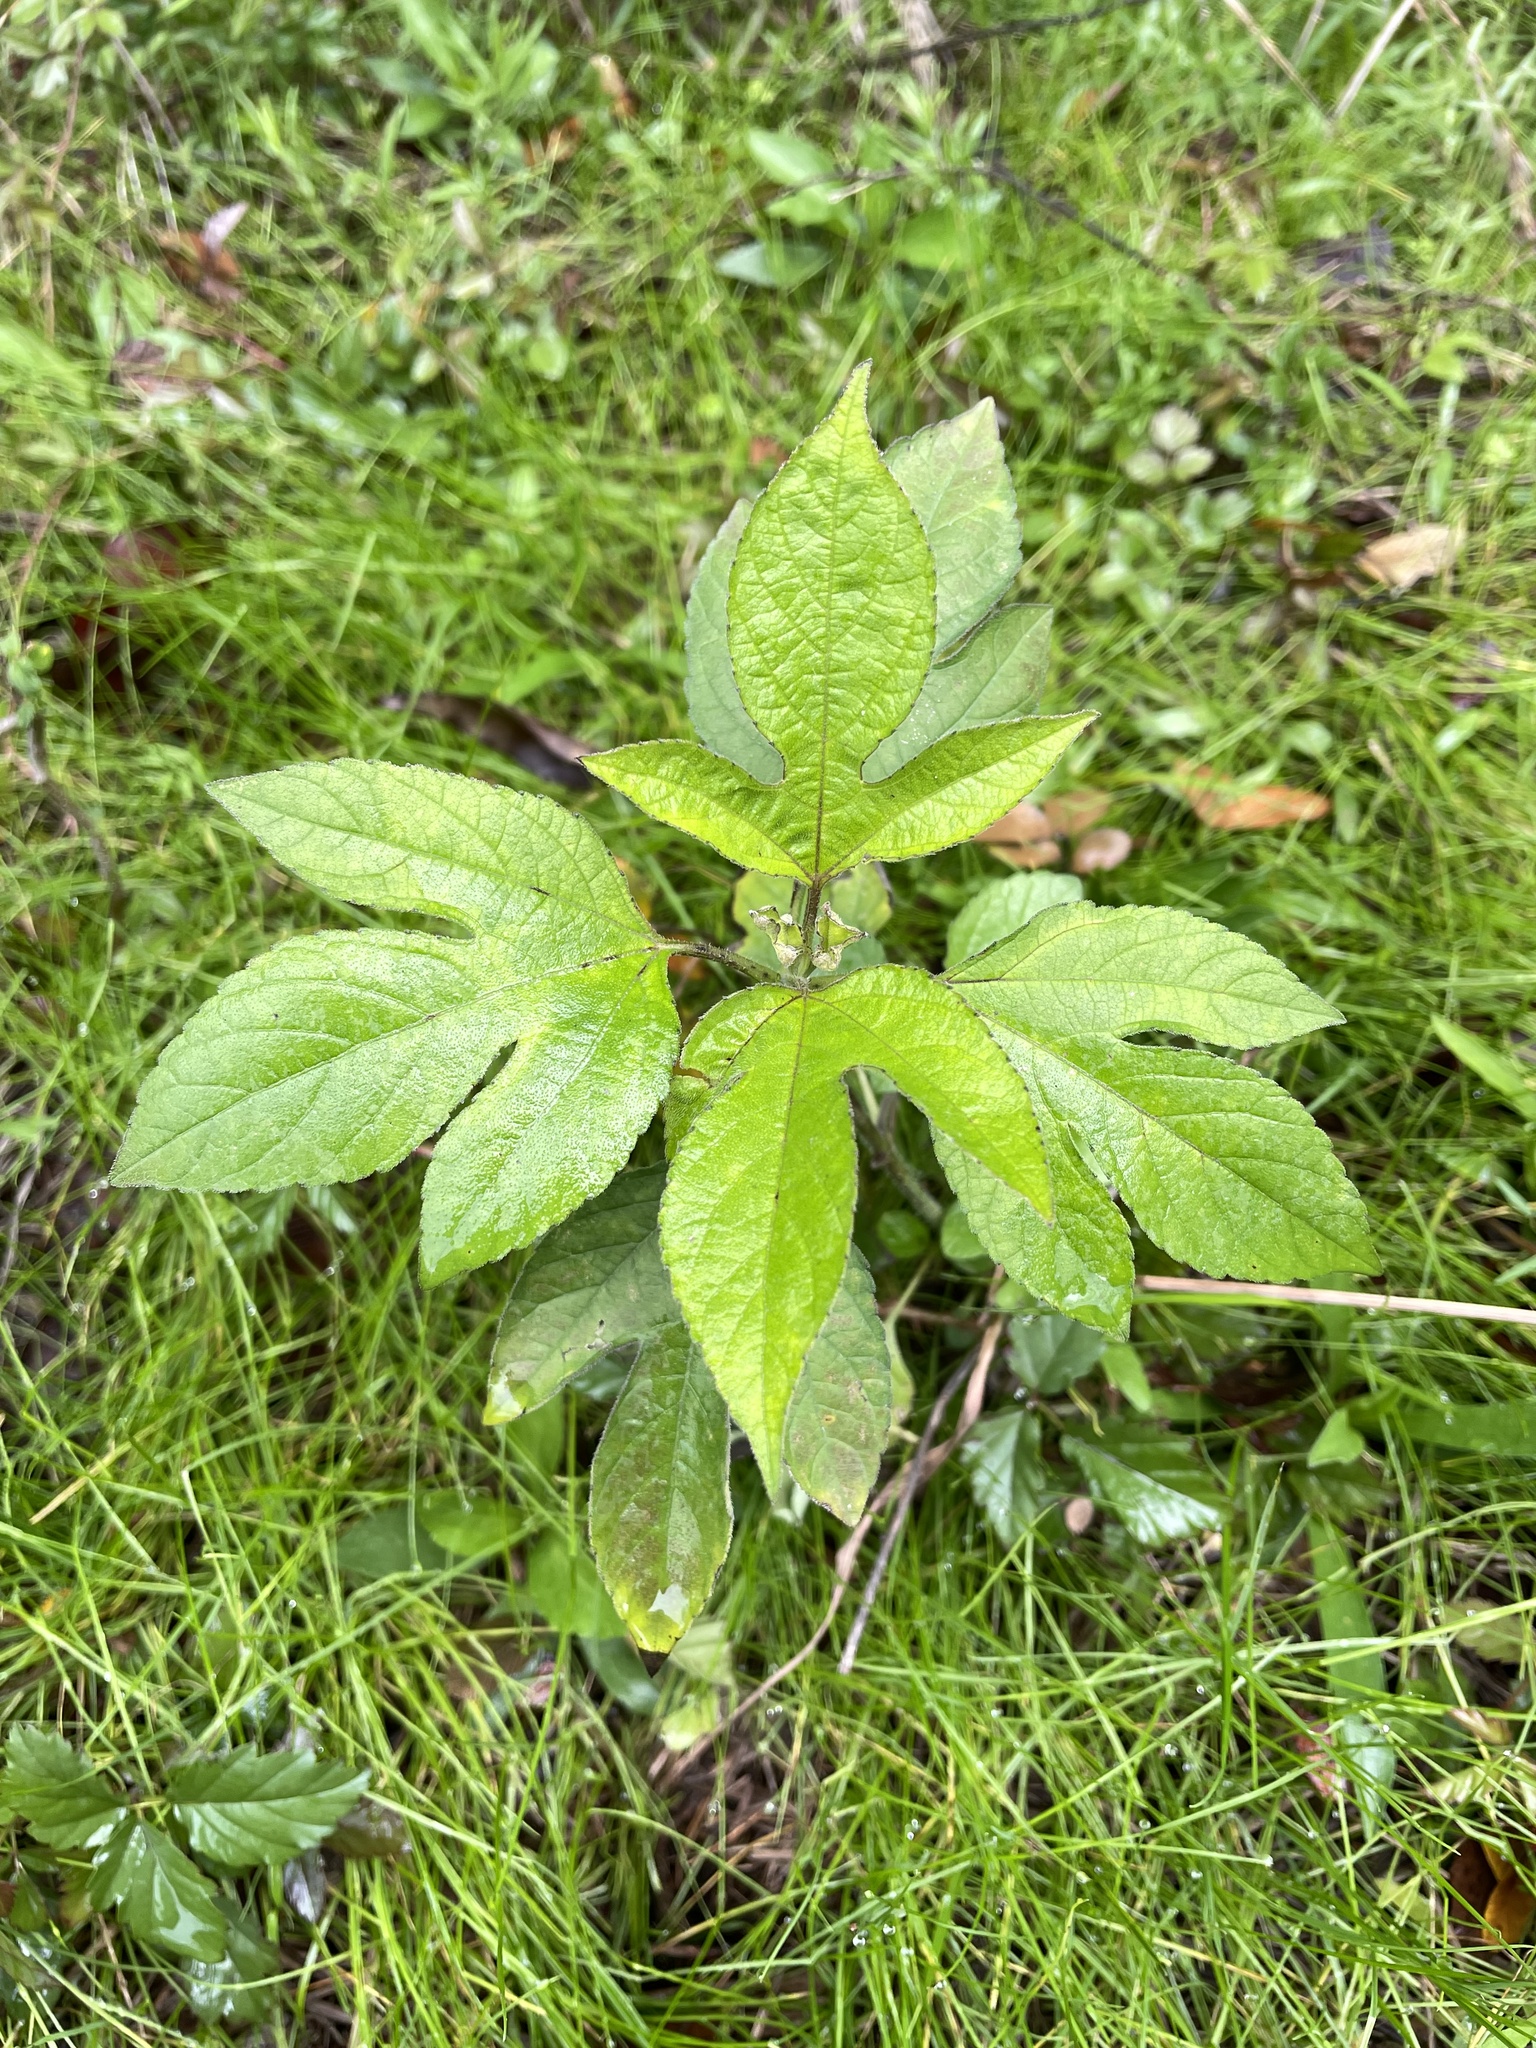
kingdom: Plantae
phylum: Tracheophyta
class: Magnoliopsida
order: Asterales
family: Asteraceae
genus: Ambrosia
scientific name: Ambrosia trifida
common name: Giant ragweed
